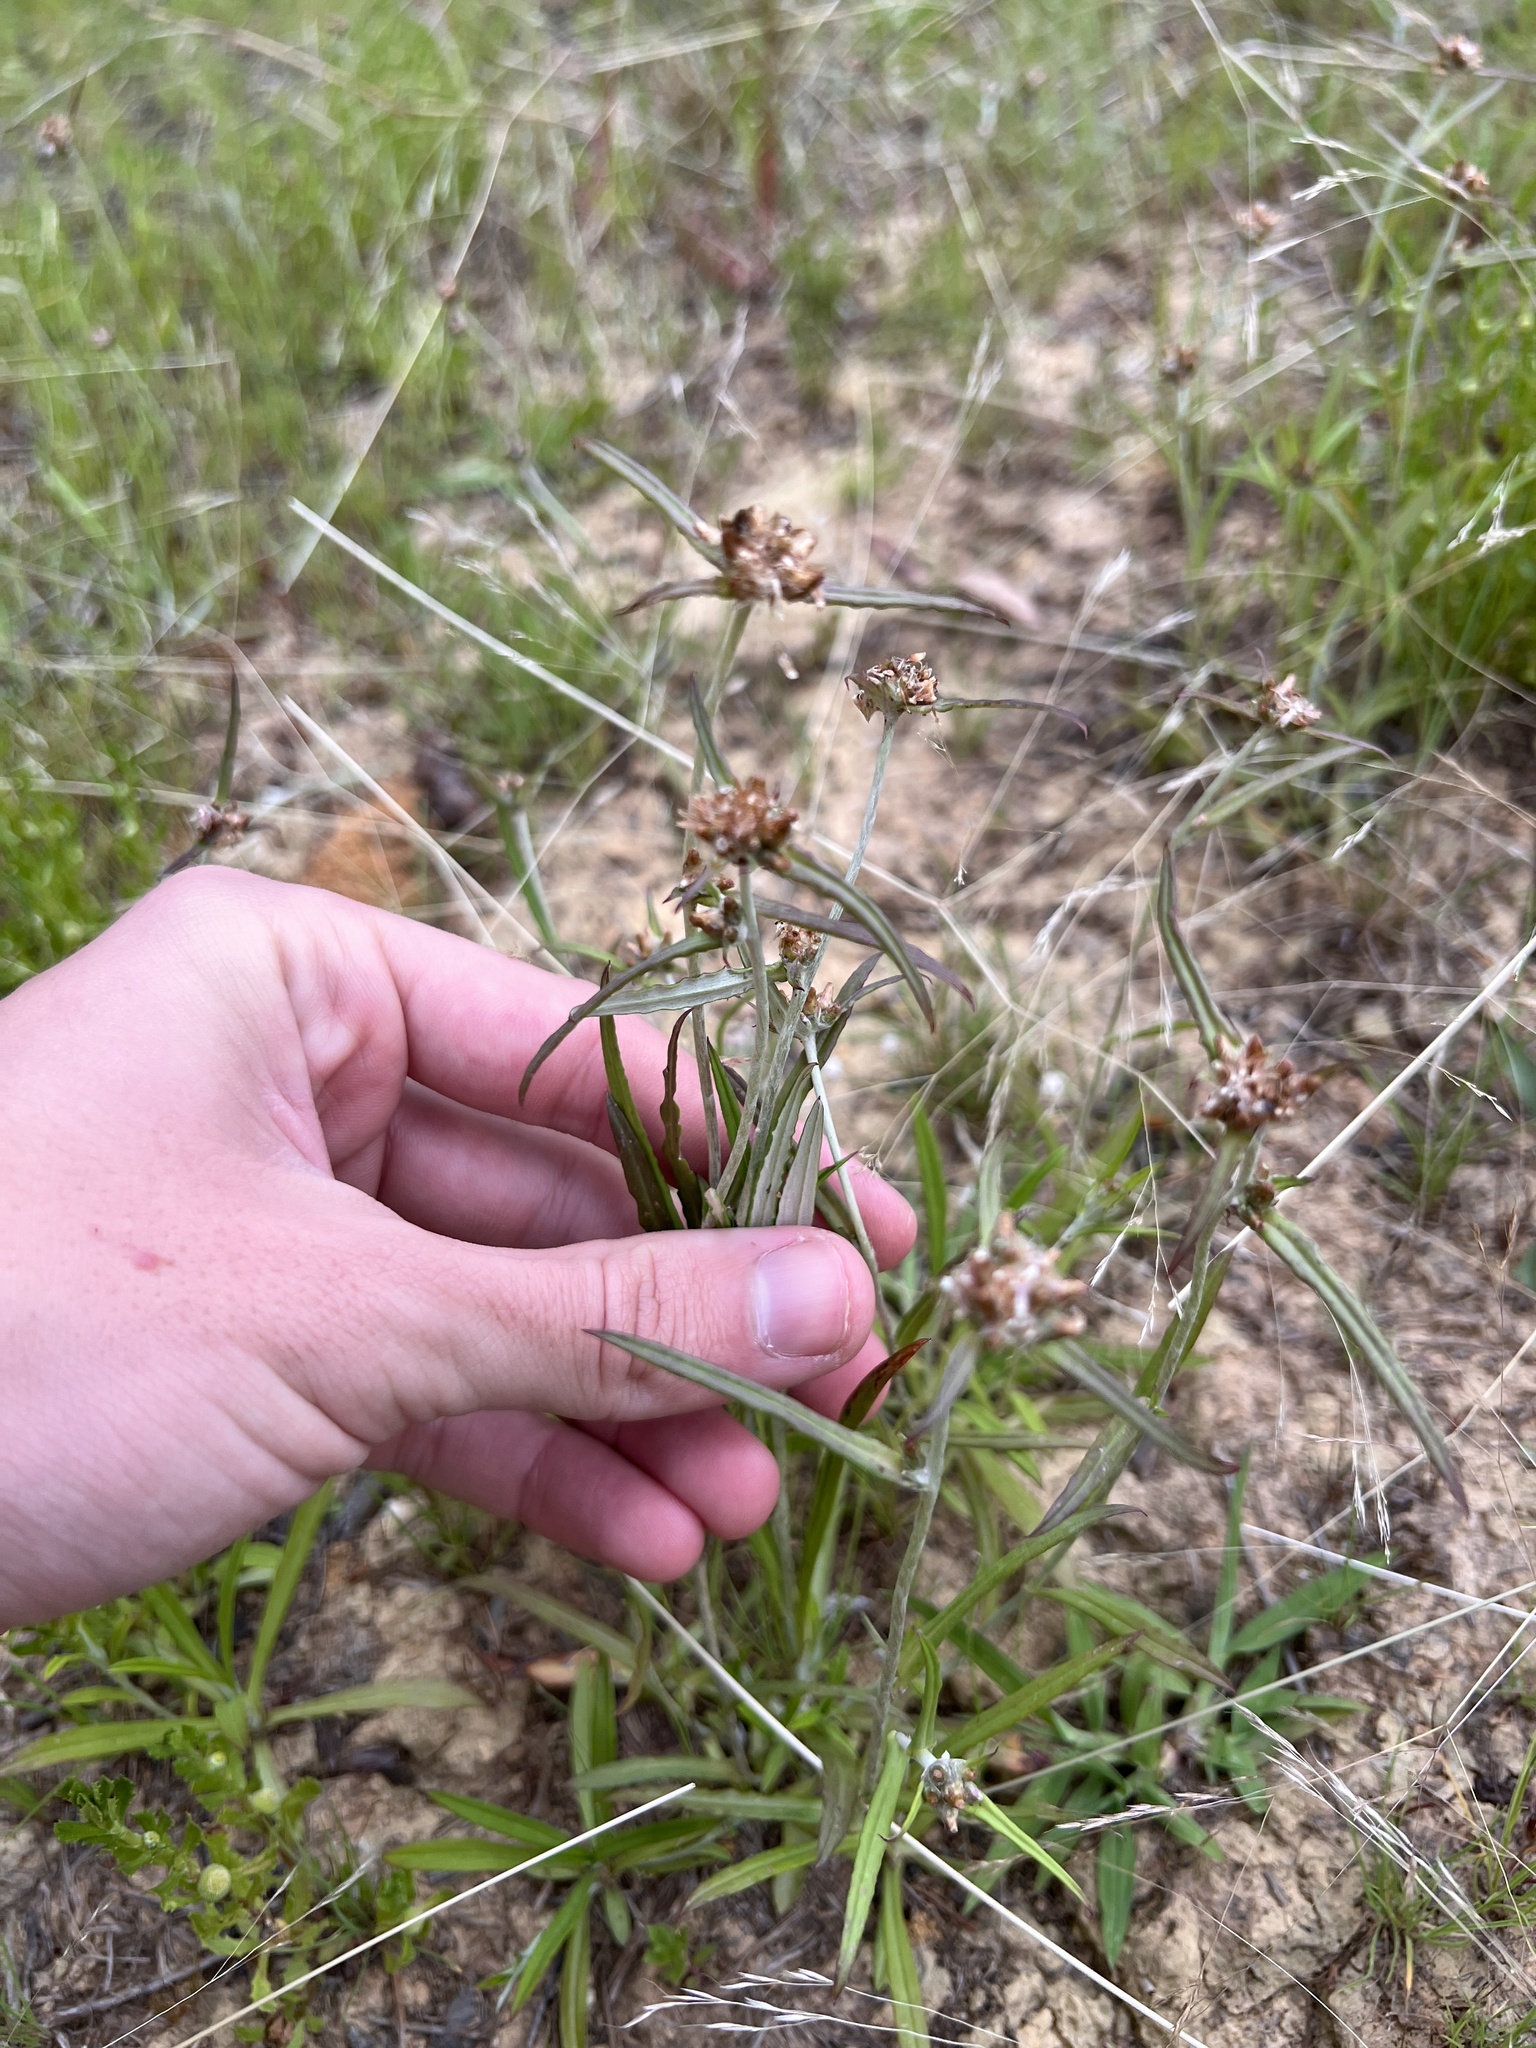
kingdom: Plantae
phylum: Tracheophyta
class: Magnoliopsida
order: Asterales
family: Asteraceae
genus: Euchiton
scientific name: Euchiton involucratus
